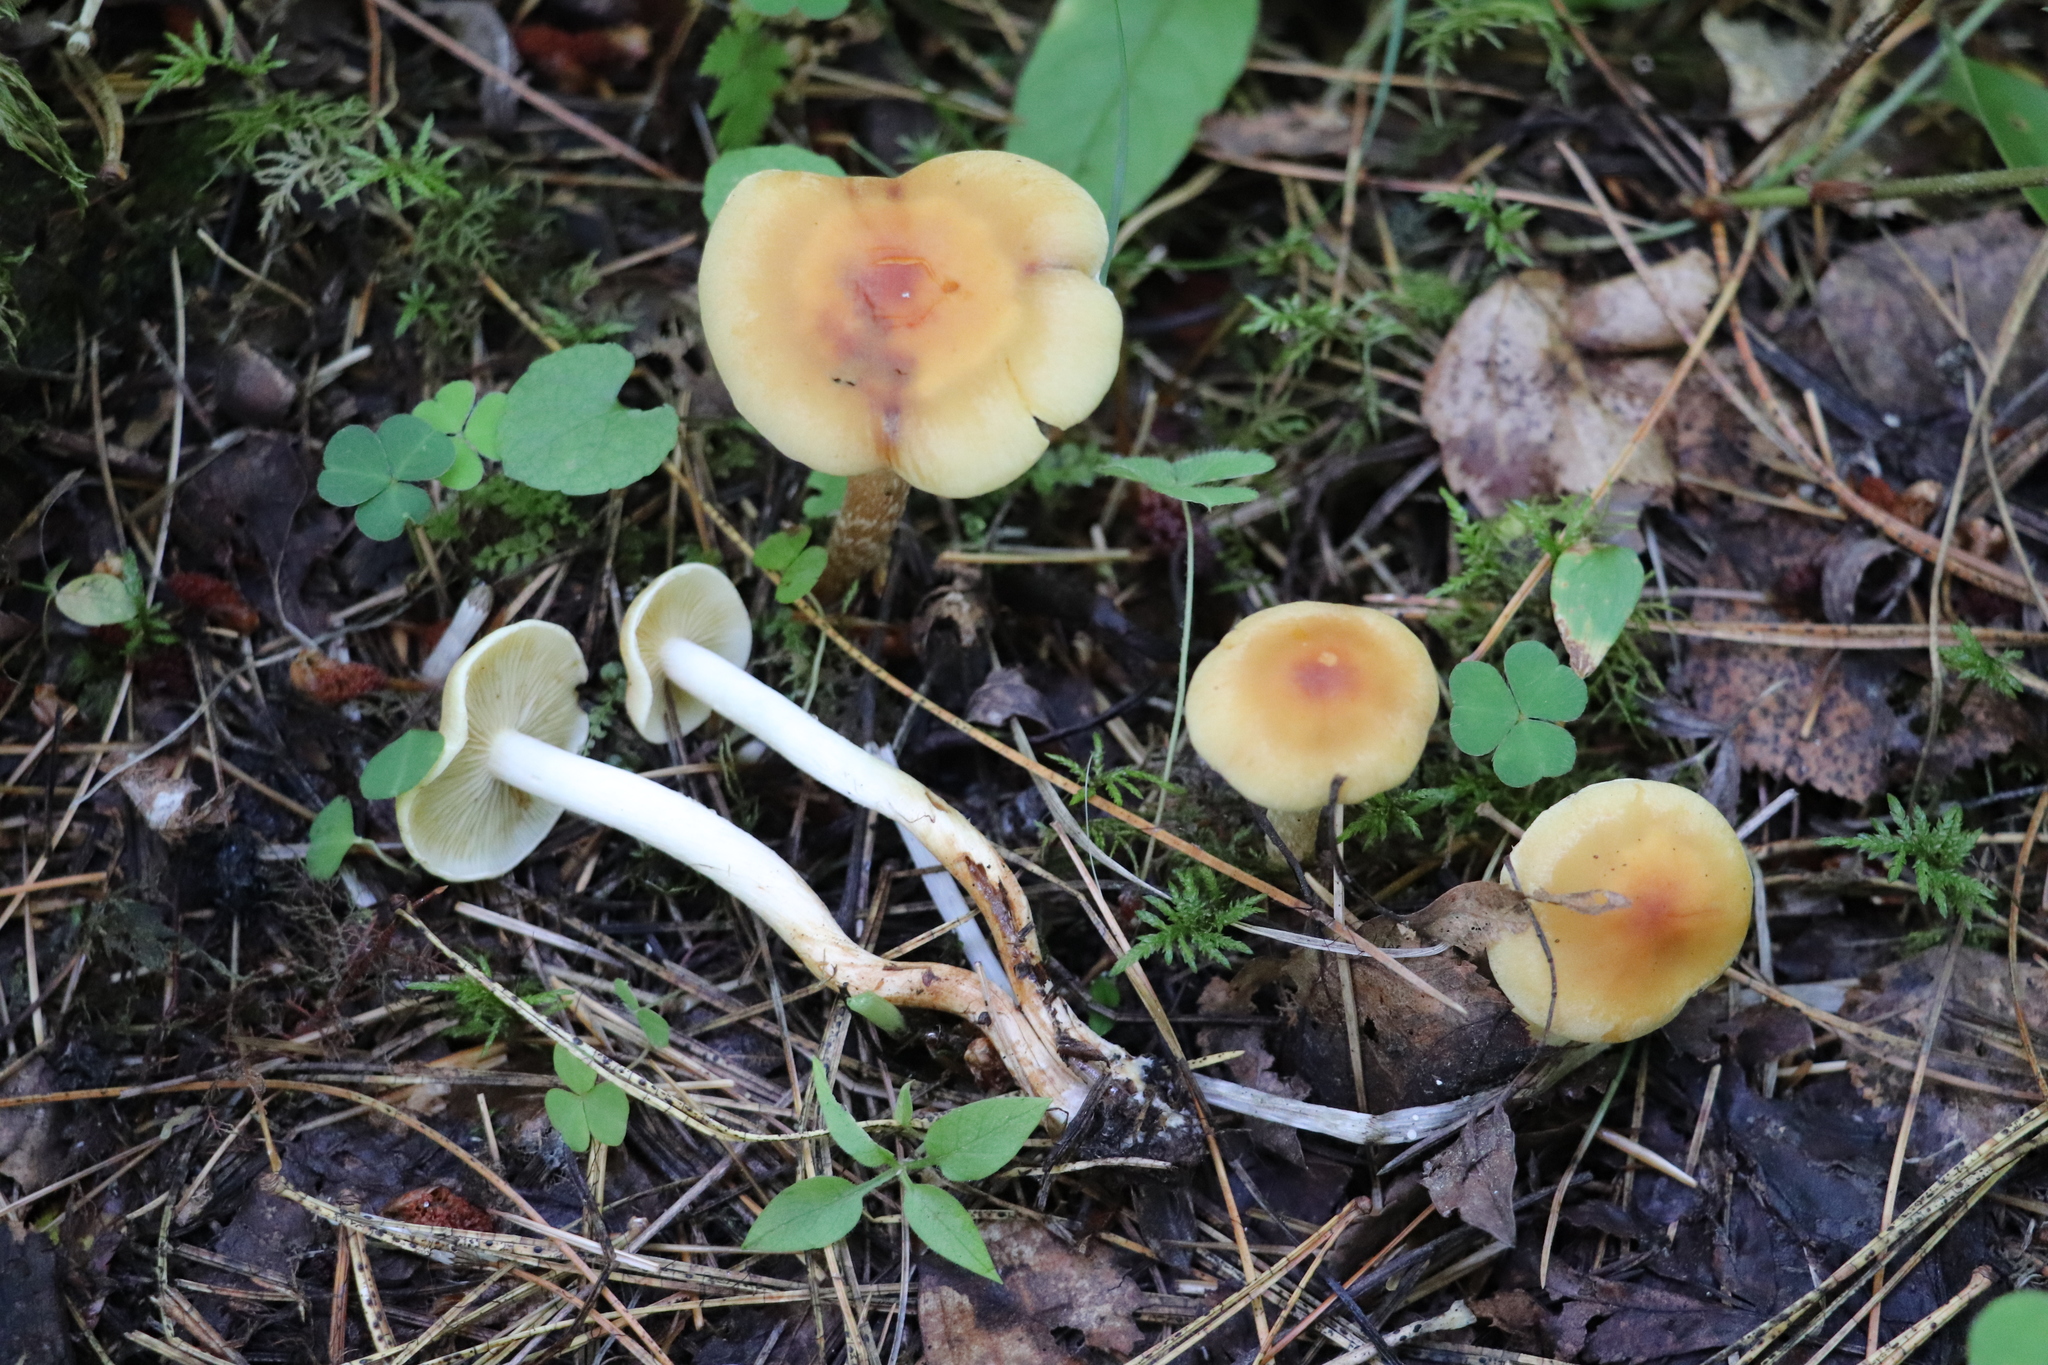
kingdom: Fungi
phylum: Basidiomycota
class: Agaricomycetes
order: Agaricales
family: Strophariaceae
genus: Hypholoma
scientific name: Hypholoma capnoides
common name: Conifer tuft
